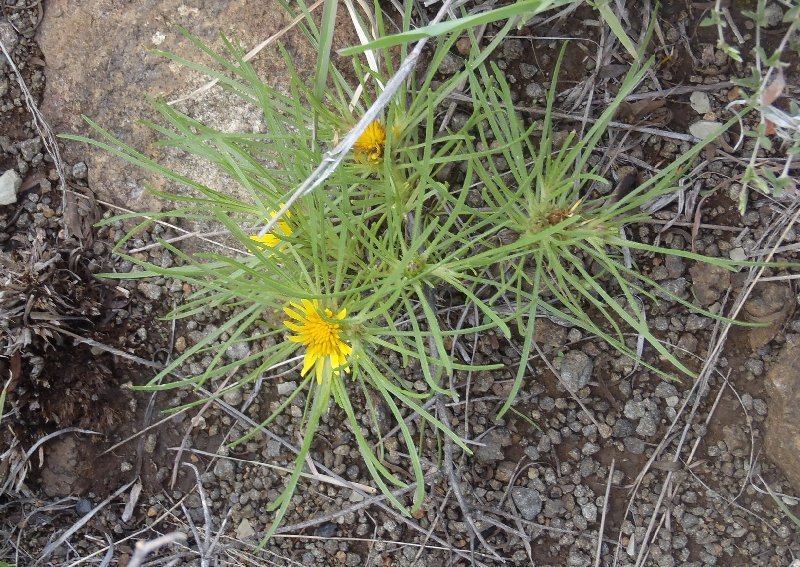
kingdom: Plantae
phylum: Tracheophyta
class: Magnoliopsida
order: Asterales
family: Asteraceae
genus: Geigeria
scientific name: Geigeria burkei
